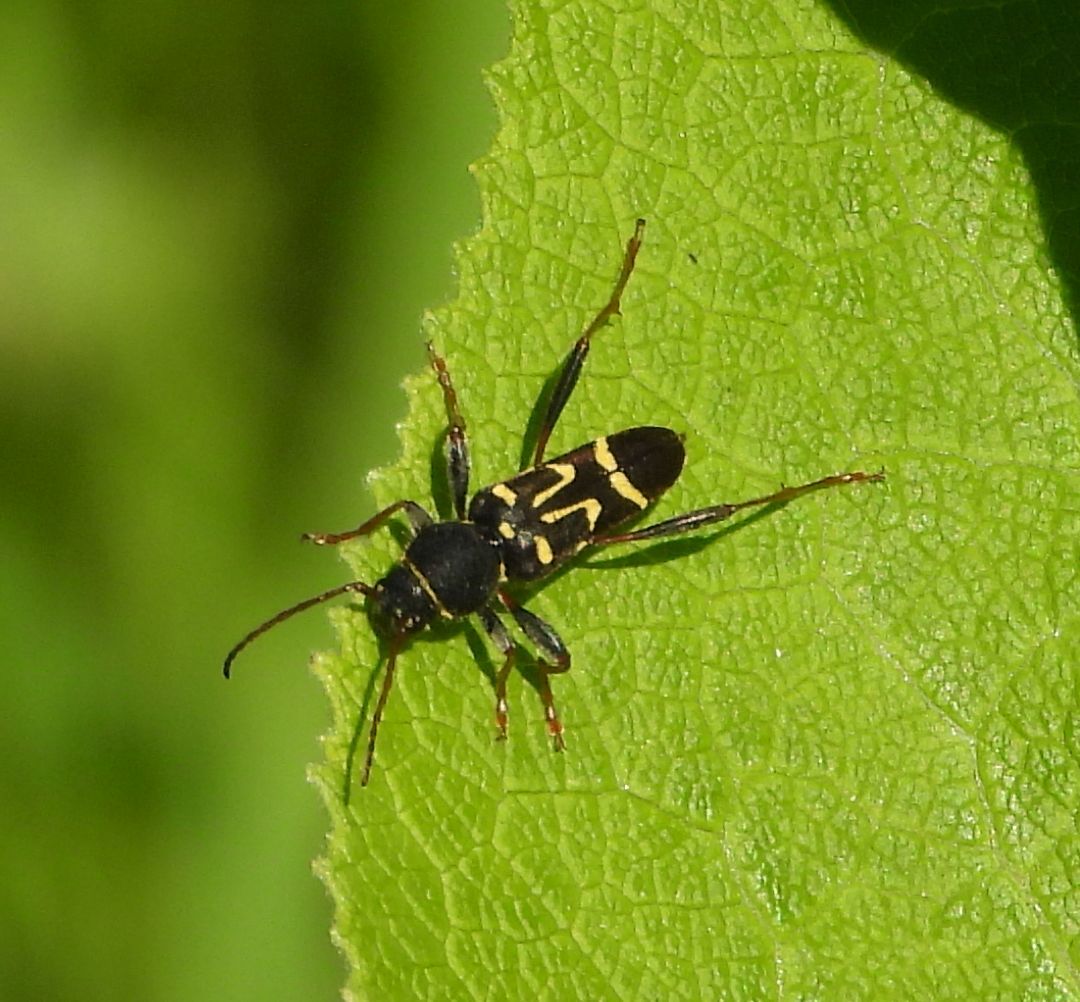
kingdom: Animalia
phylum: Arthropoda
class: Insecta
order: Coleoptera
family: Cerambycidae
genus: Clytus
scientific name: Clytus ruricola
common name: Round-necked longhorn beetle
